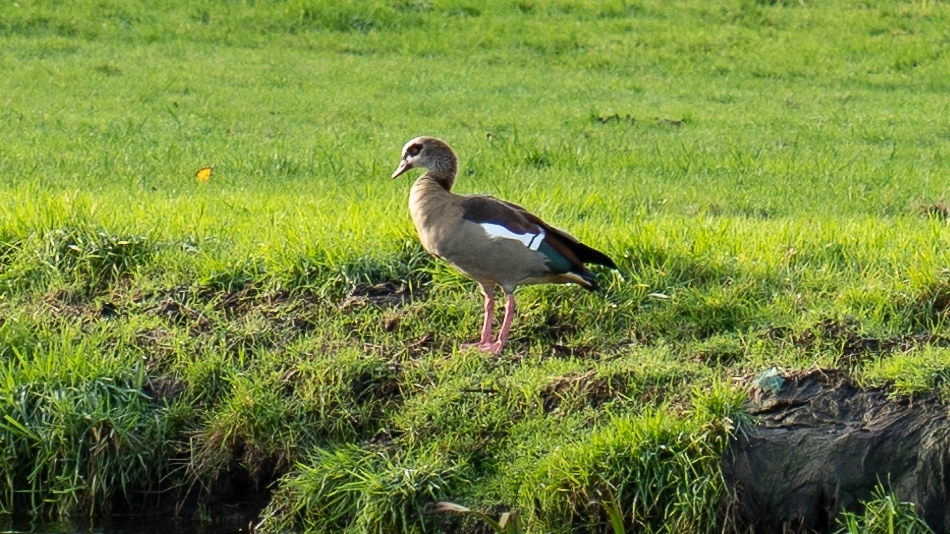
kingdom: Animalia
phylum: Chordata
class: Aves
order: Anseriformes
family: Anatidae
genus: Alopochen
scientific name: Alopochen aegyptiaca
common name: Egyptian goose
